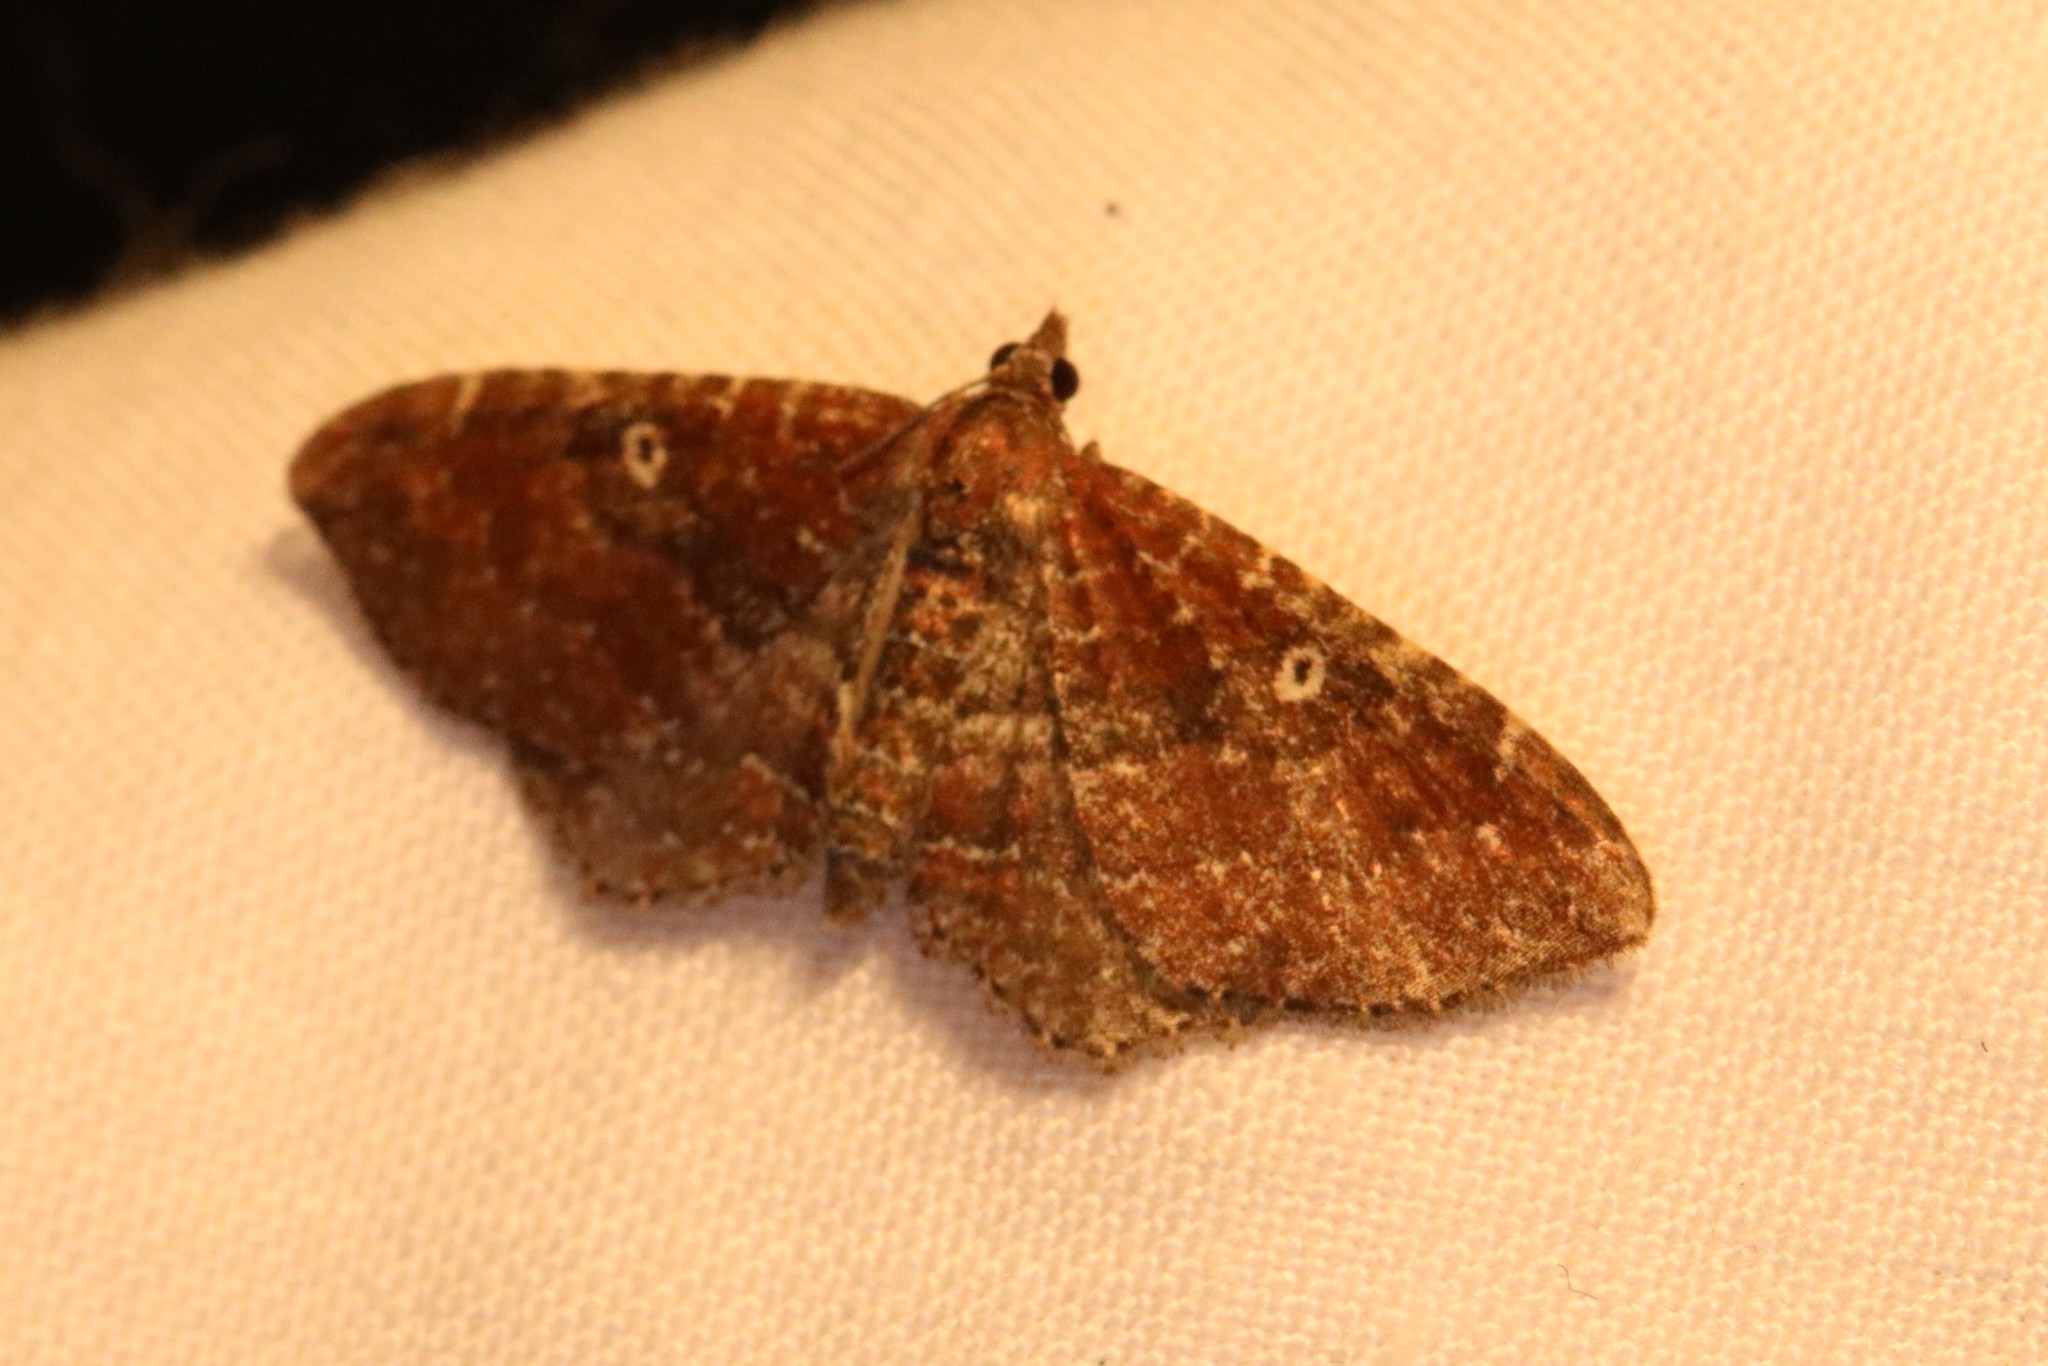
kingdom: Animalia
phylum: Arthropoda
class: Insecta
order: Lepidoptera
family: Geometridae
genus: Orthonama
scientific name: Orthonama obstipata
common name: The gem
